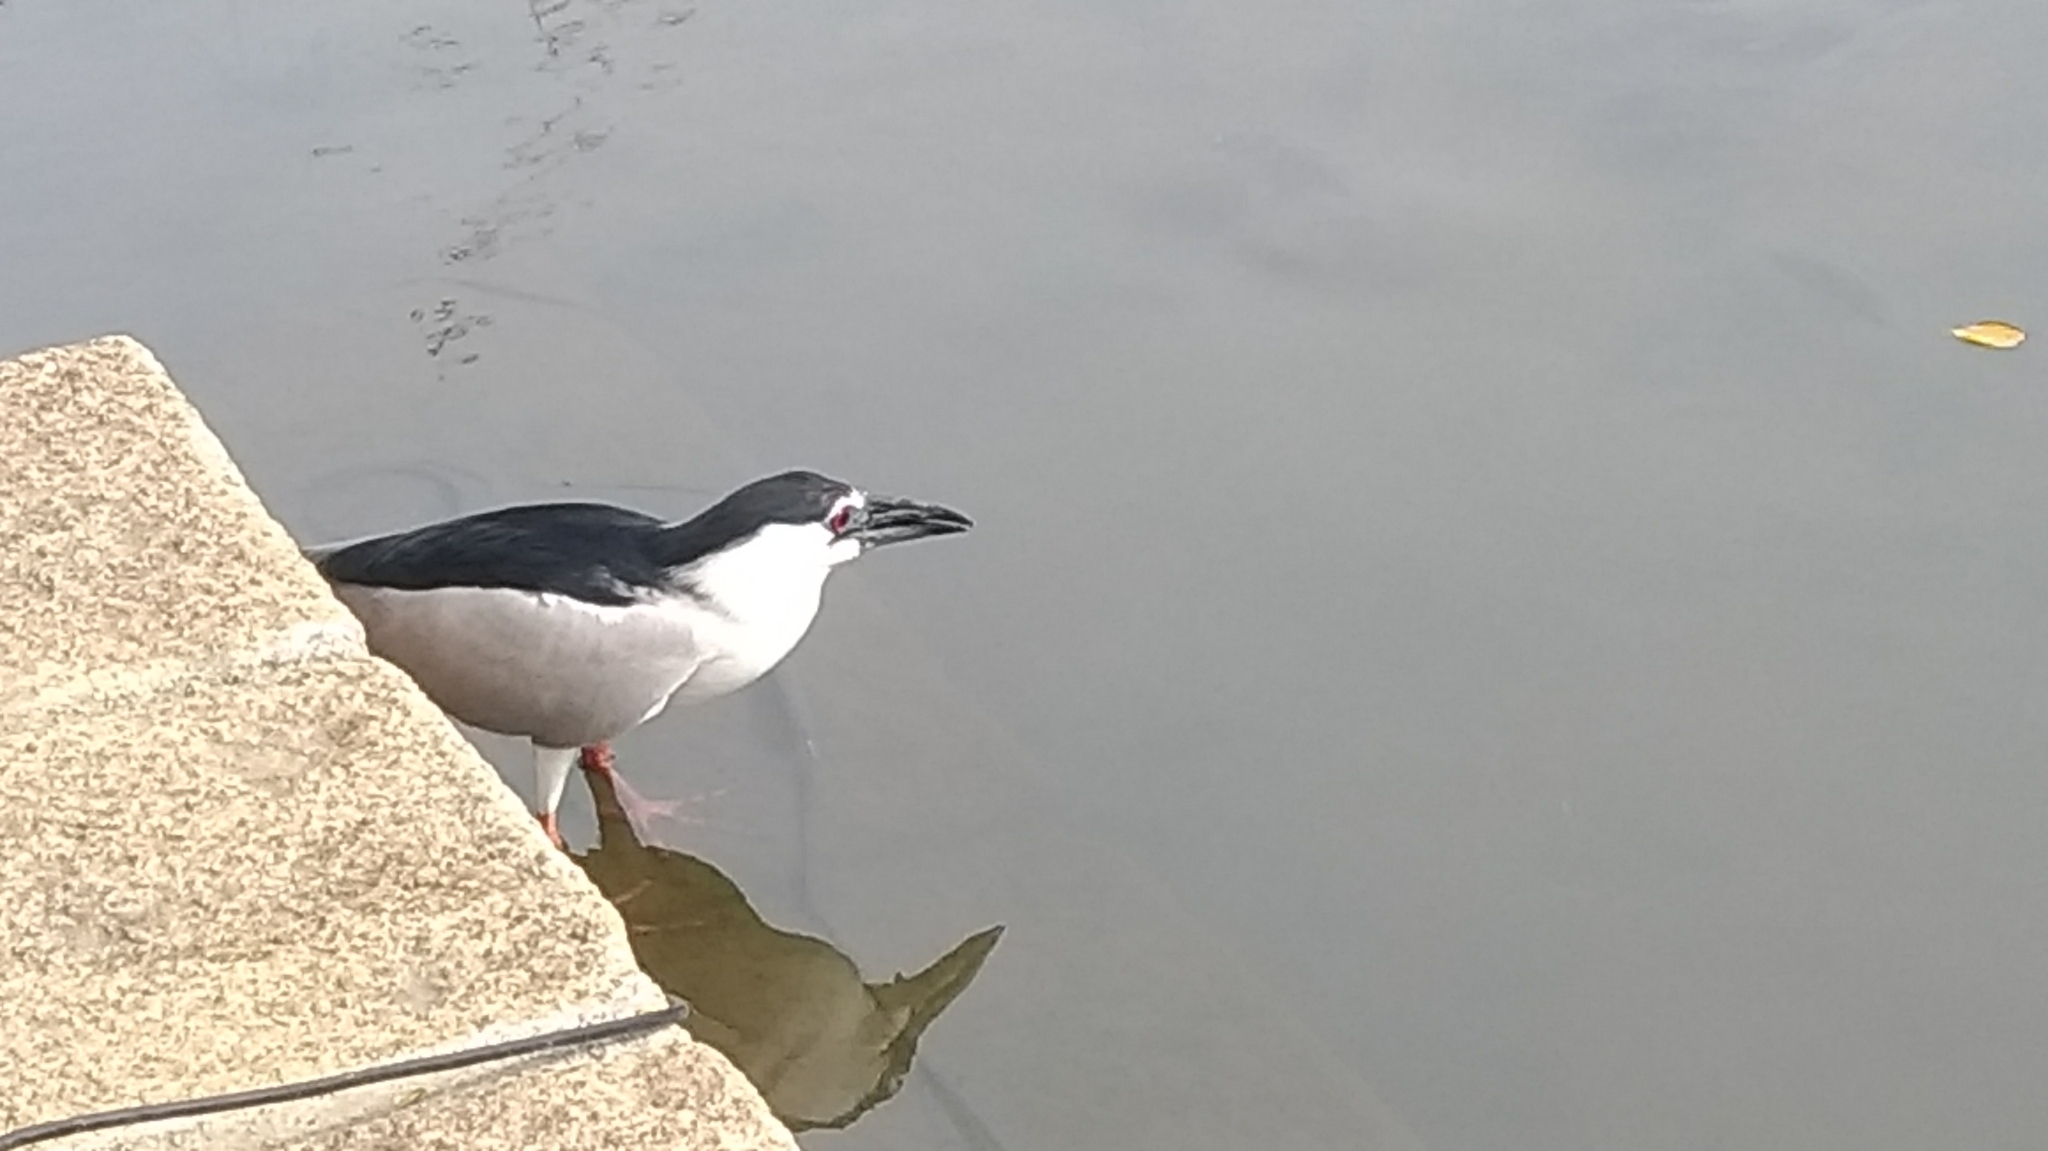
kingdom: Animalia
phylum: Chordata
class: Aves
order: Pelecaniformes
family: Ardeidae
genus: Nycticorax
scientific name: Nycticorax nycticorax
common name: Black-crowned night heron
